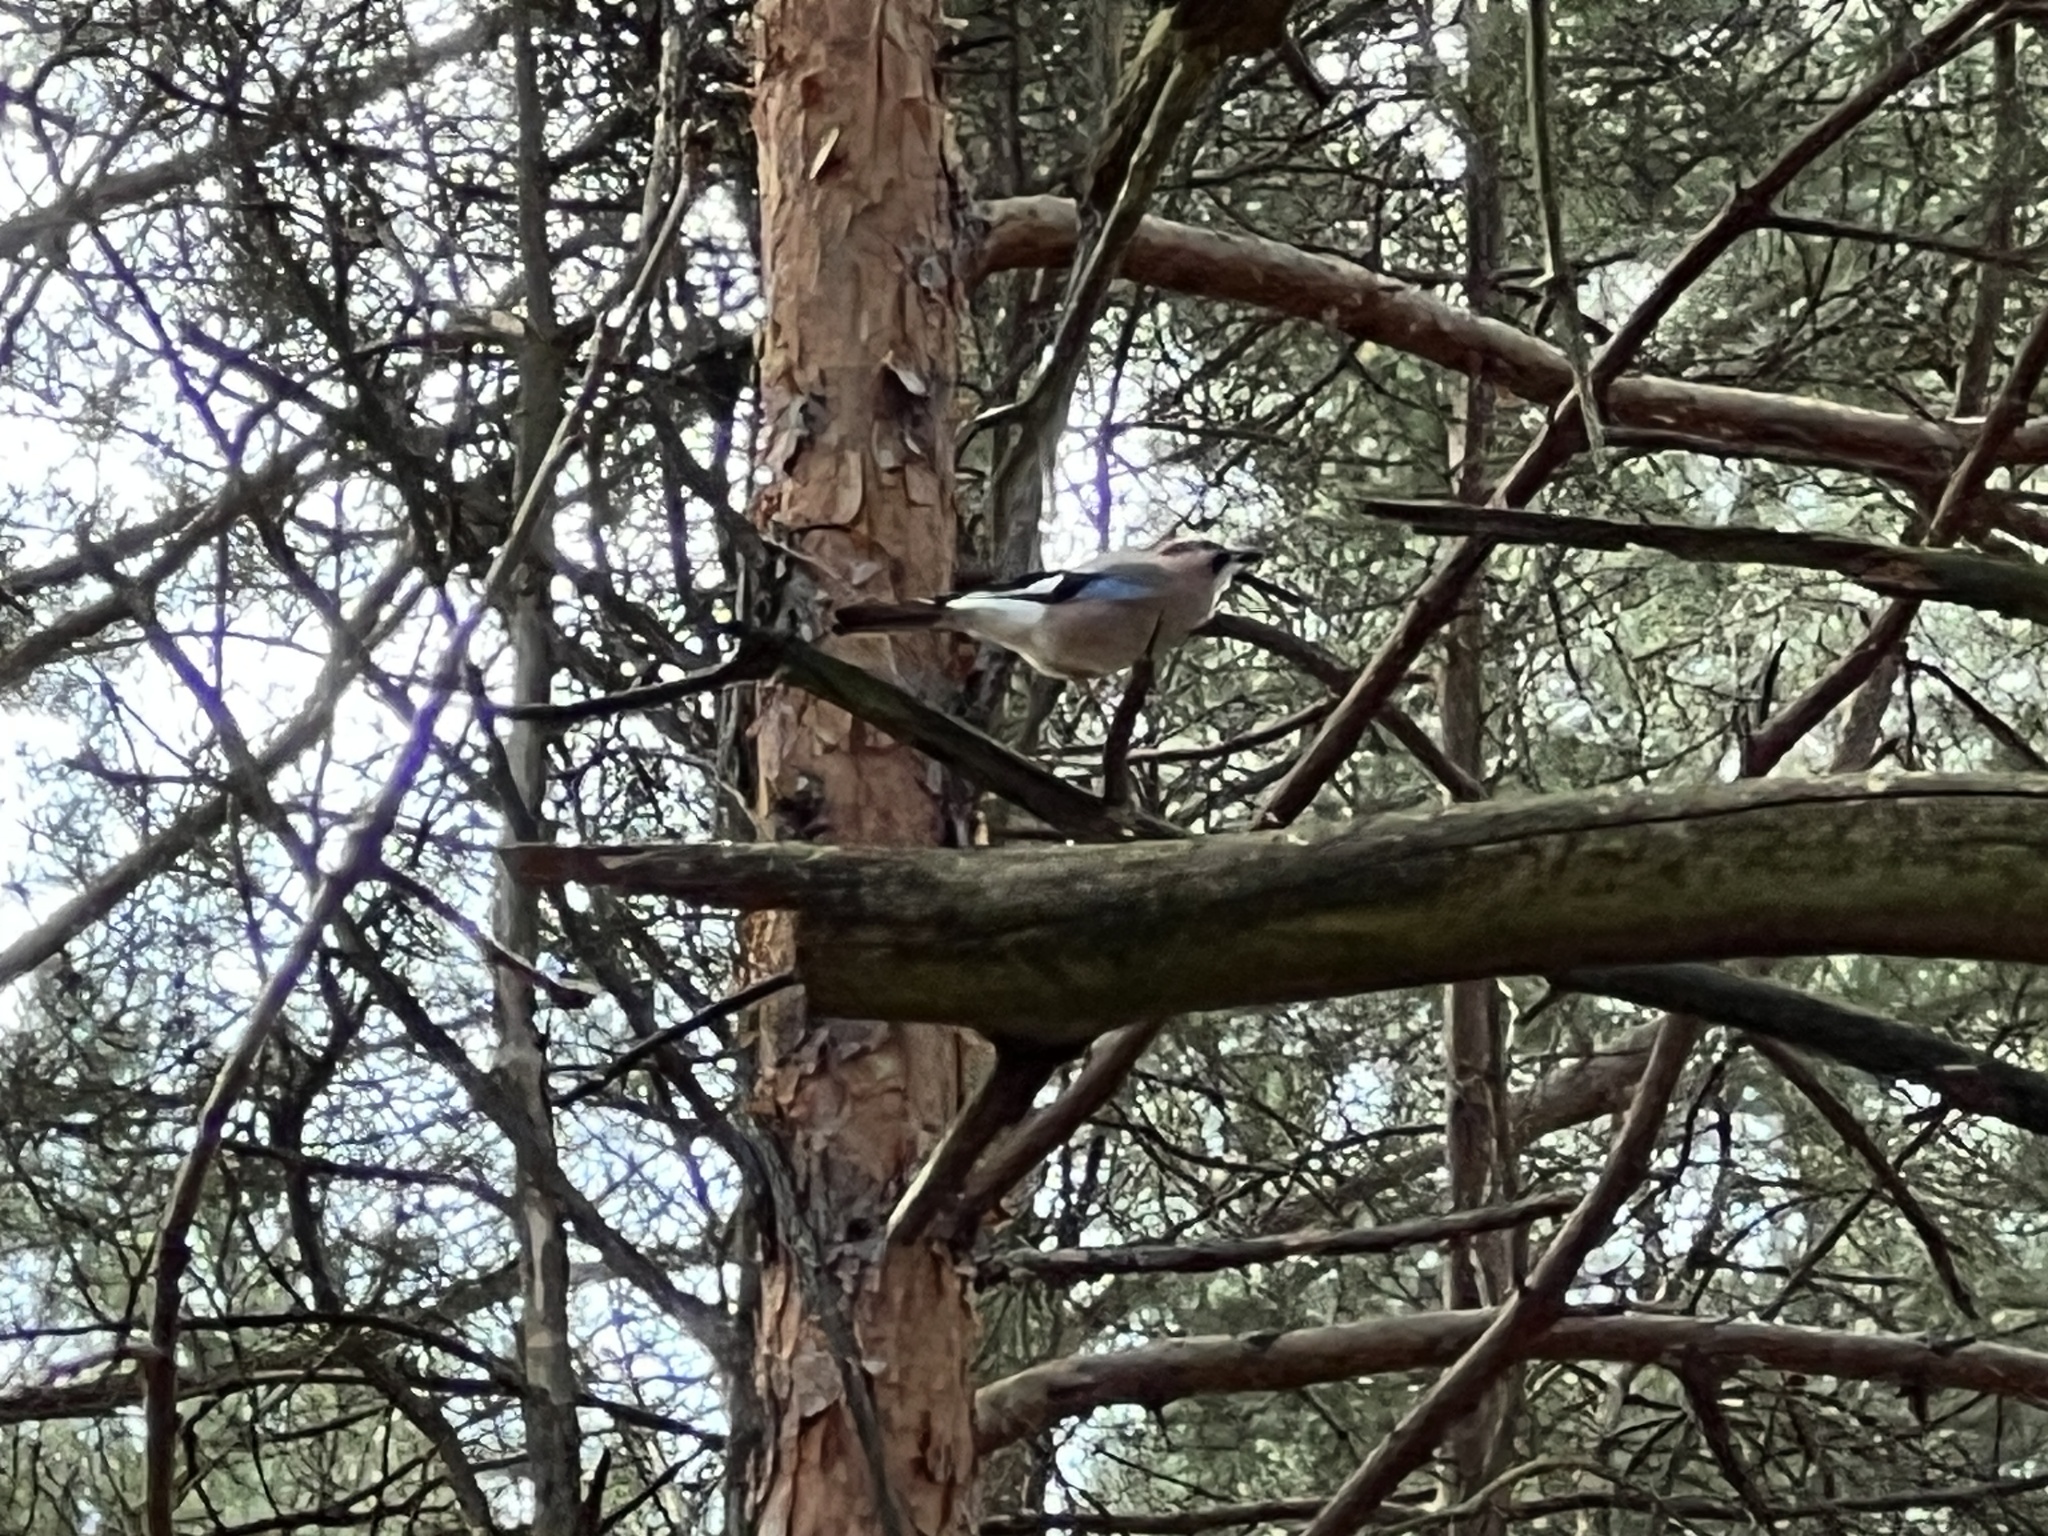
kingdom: Animalia
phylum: Chordata
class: Aves
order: Passeriformes
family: Corvidae
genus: Garrulus
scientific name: Garrulus glandarius
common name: Eurasian jay
